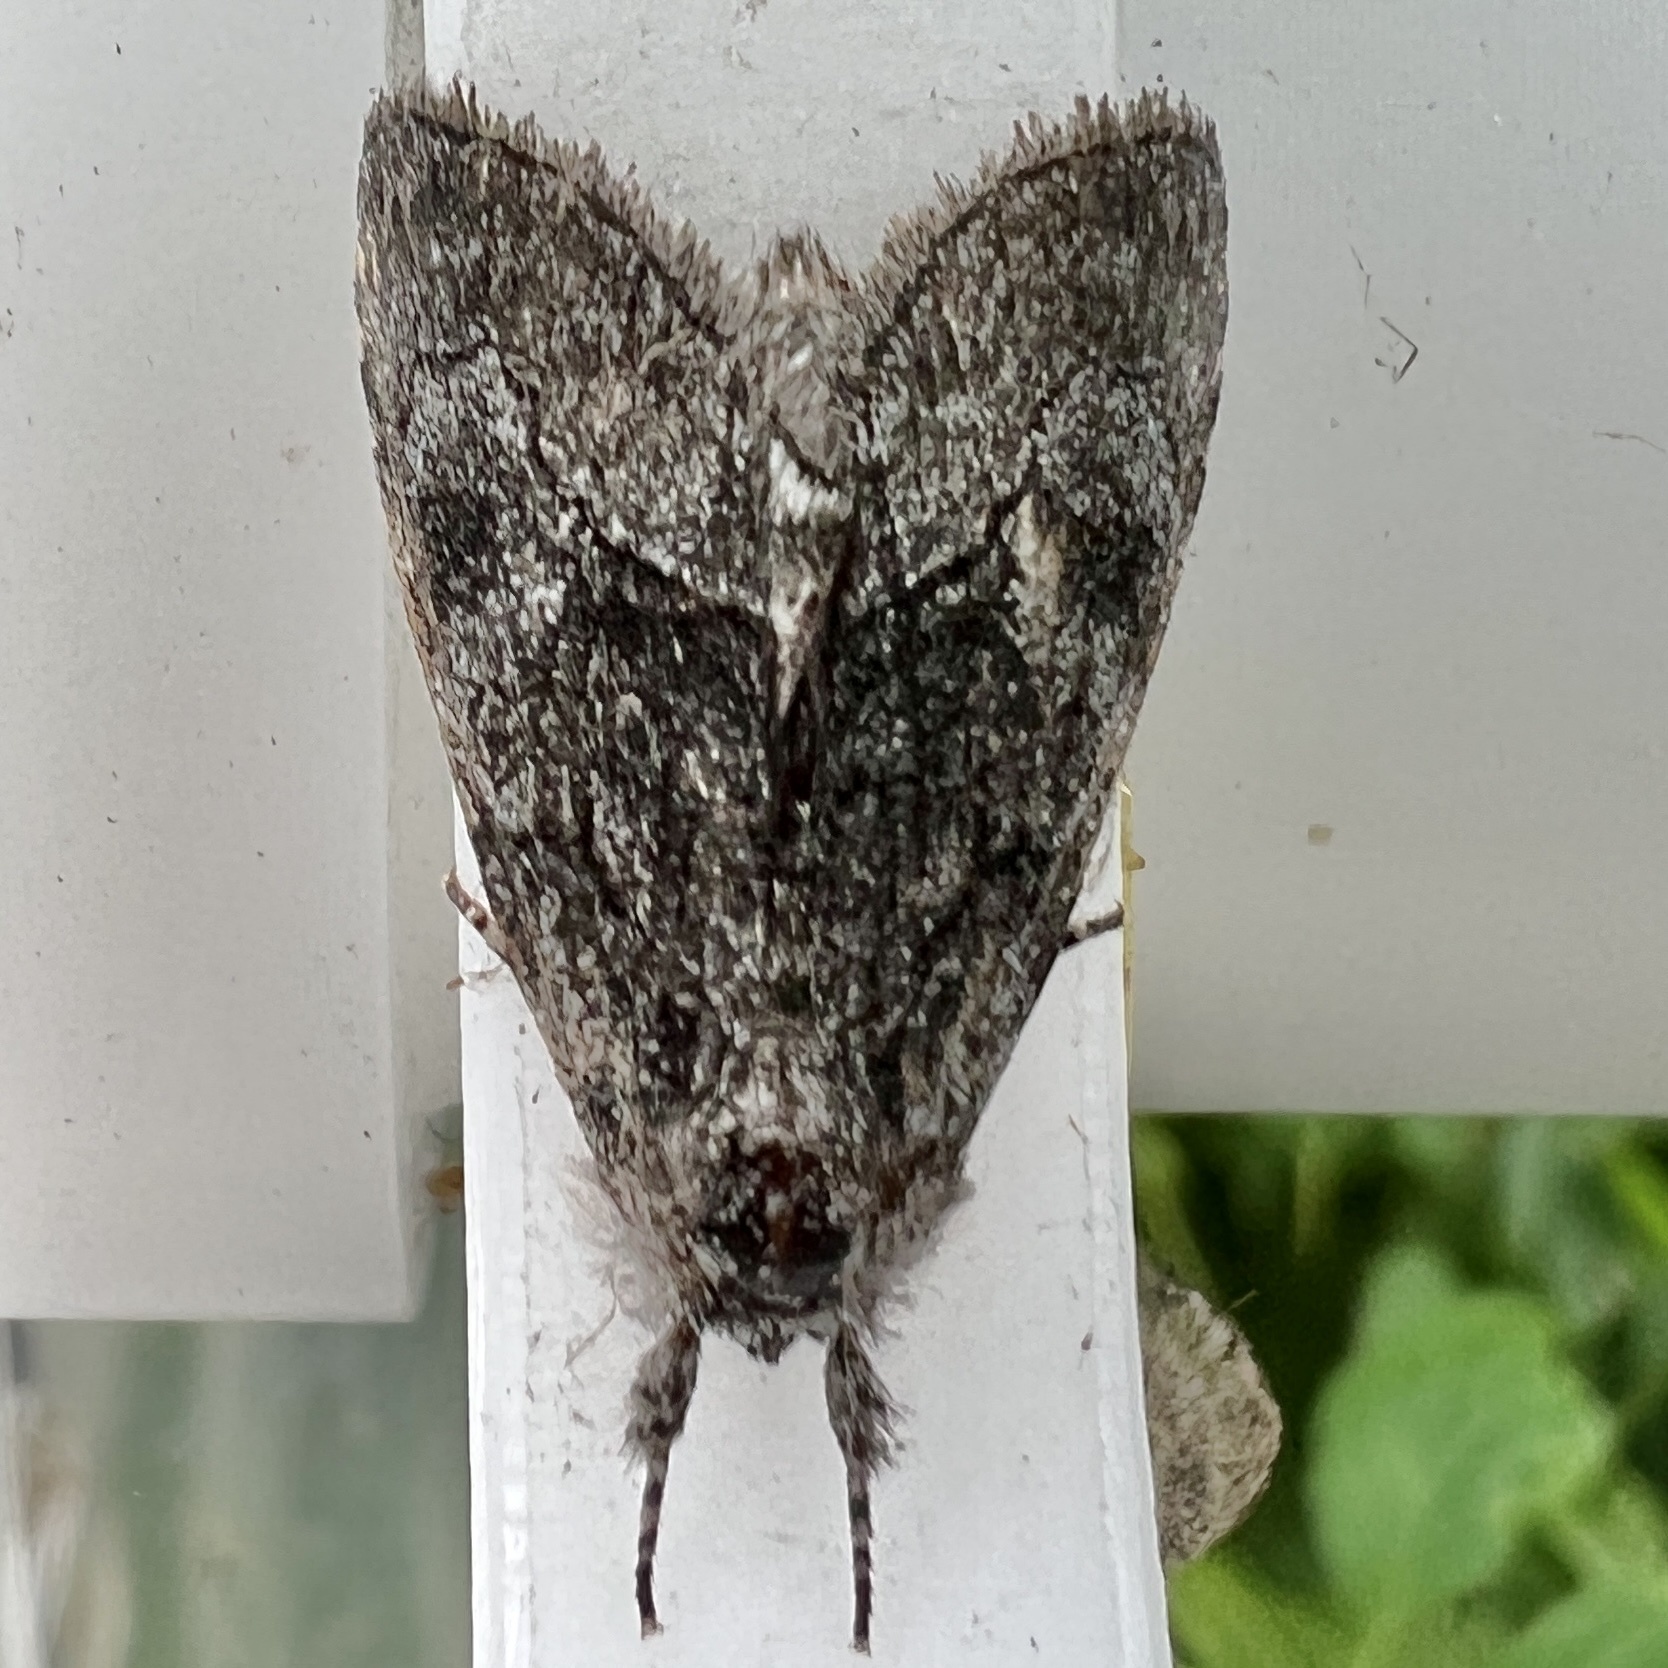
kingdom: Animalia
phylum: Arthropoda
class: Insecta
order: Lepidoptera
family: Noctuidae
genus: Raphia
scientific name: Raphia frater
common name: Brother
